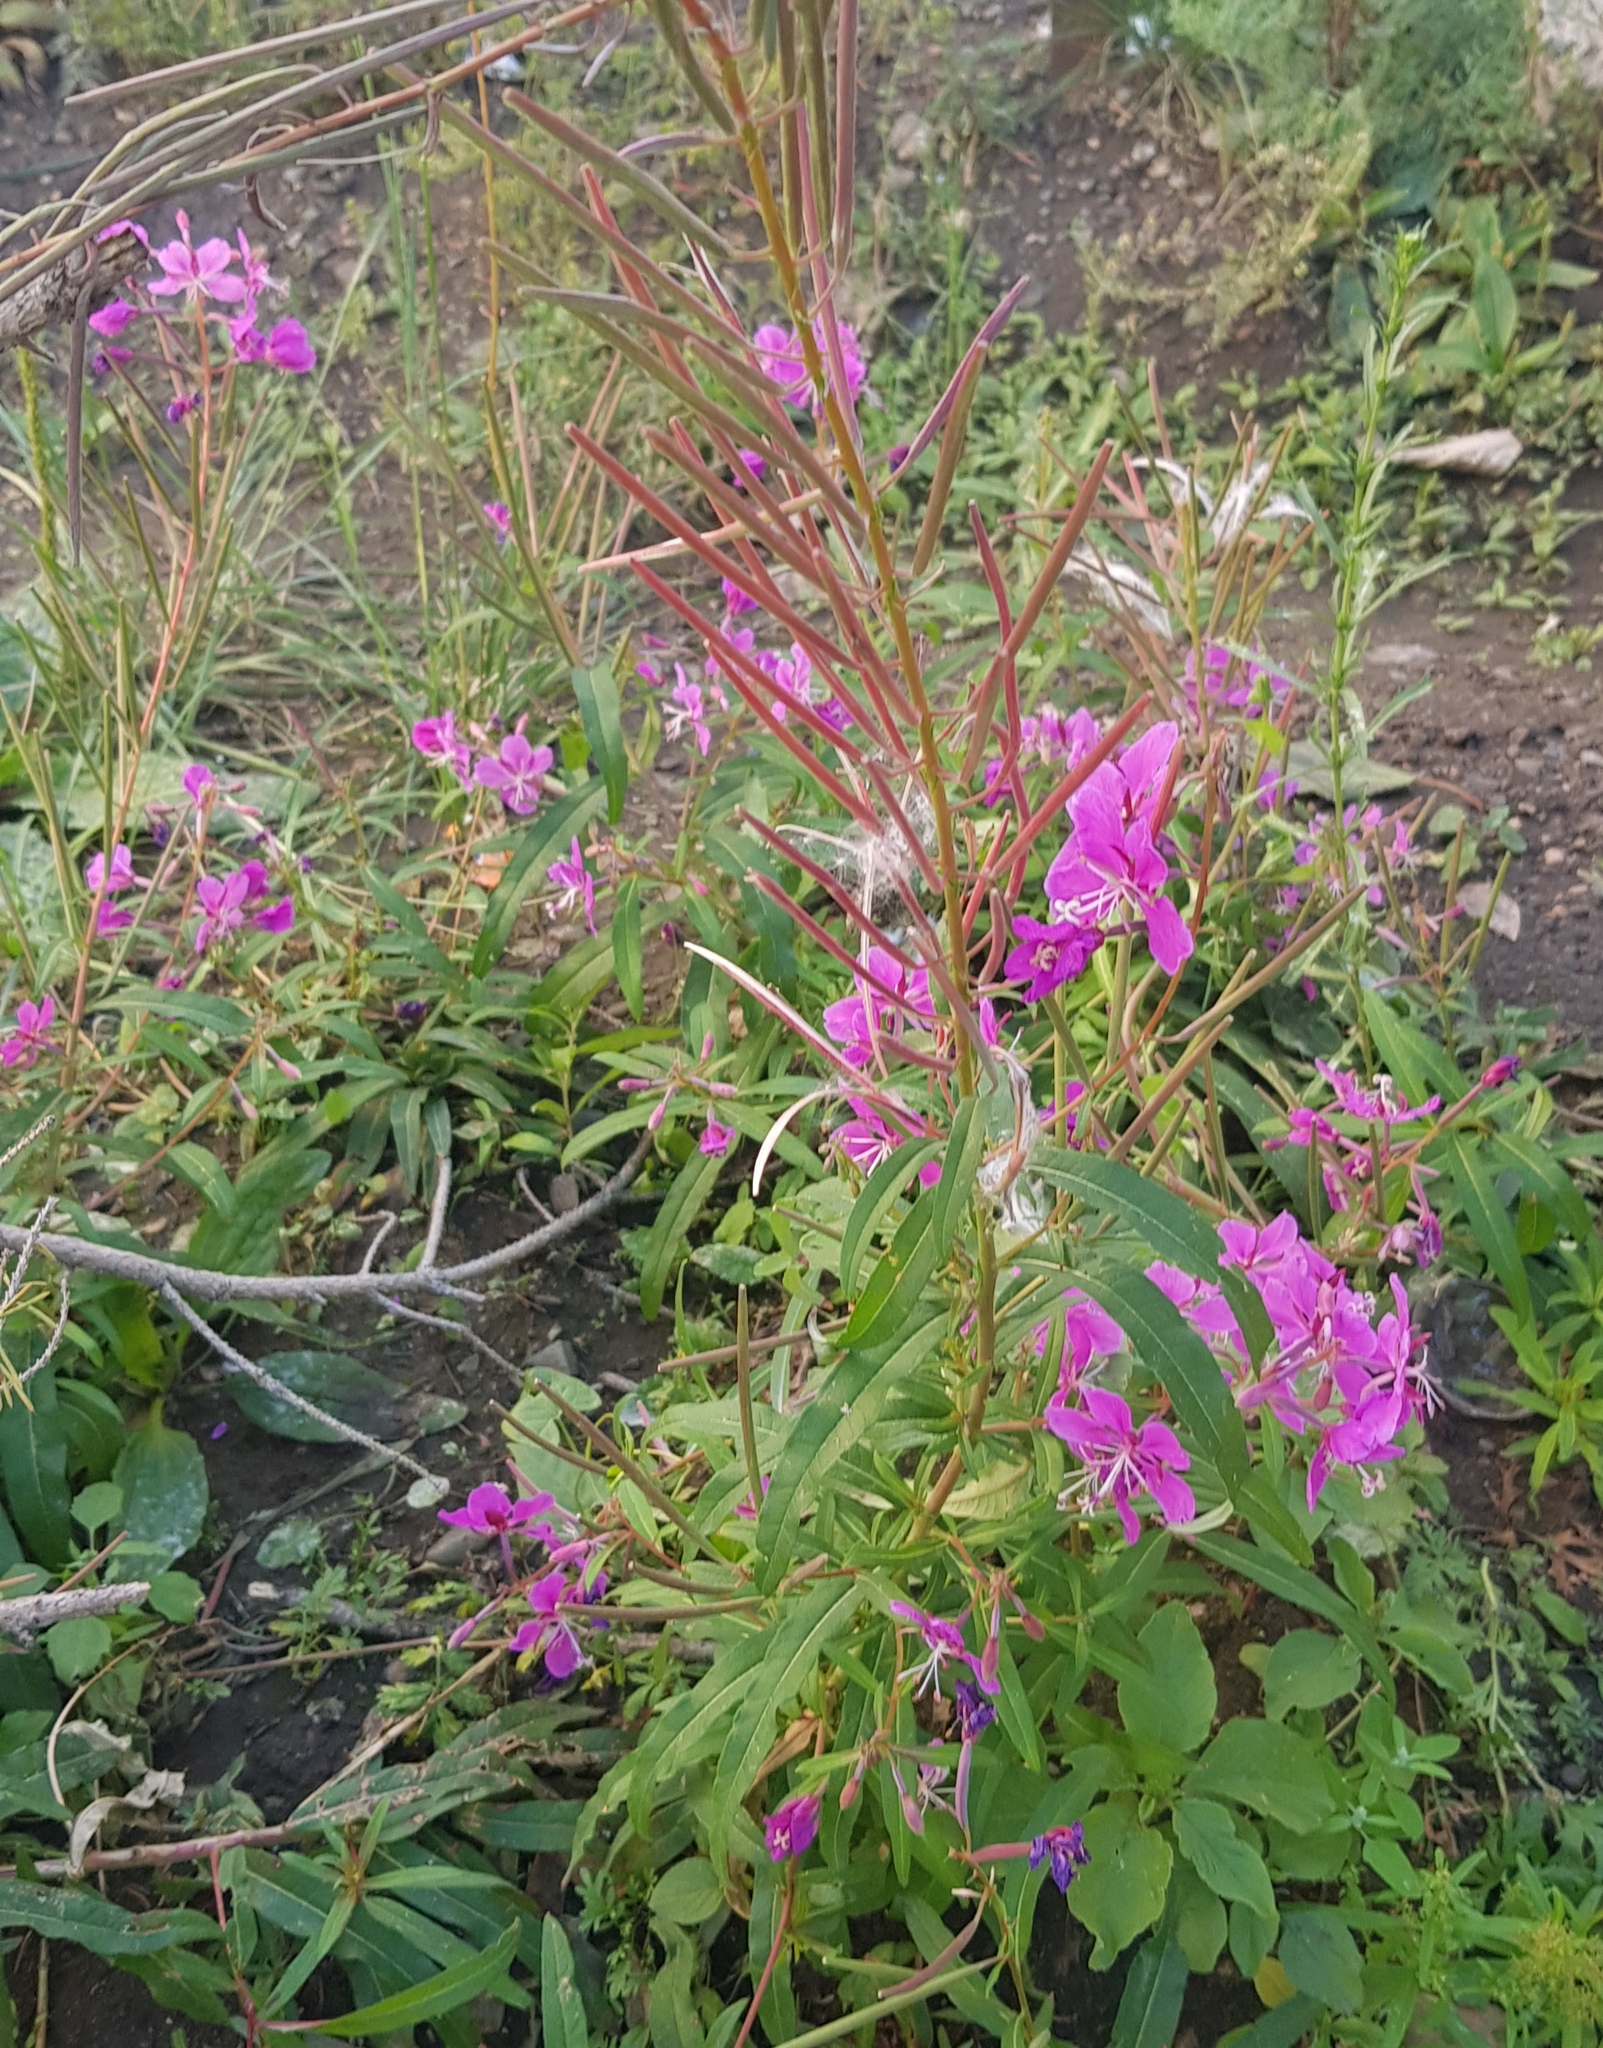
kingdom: Plantae
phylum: Tracheophyta
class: Magnoliopsida
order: Myrtales
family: Onagraceae
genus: Chamaenerion
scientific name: Chamaenerion angustifolium
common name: Fireweed
